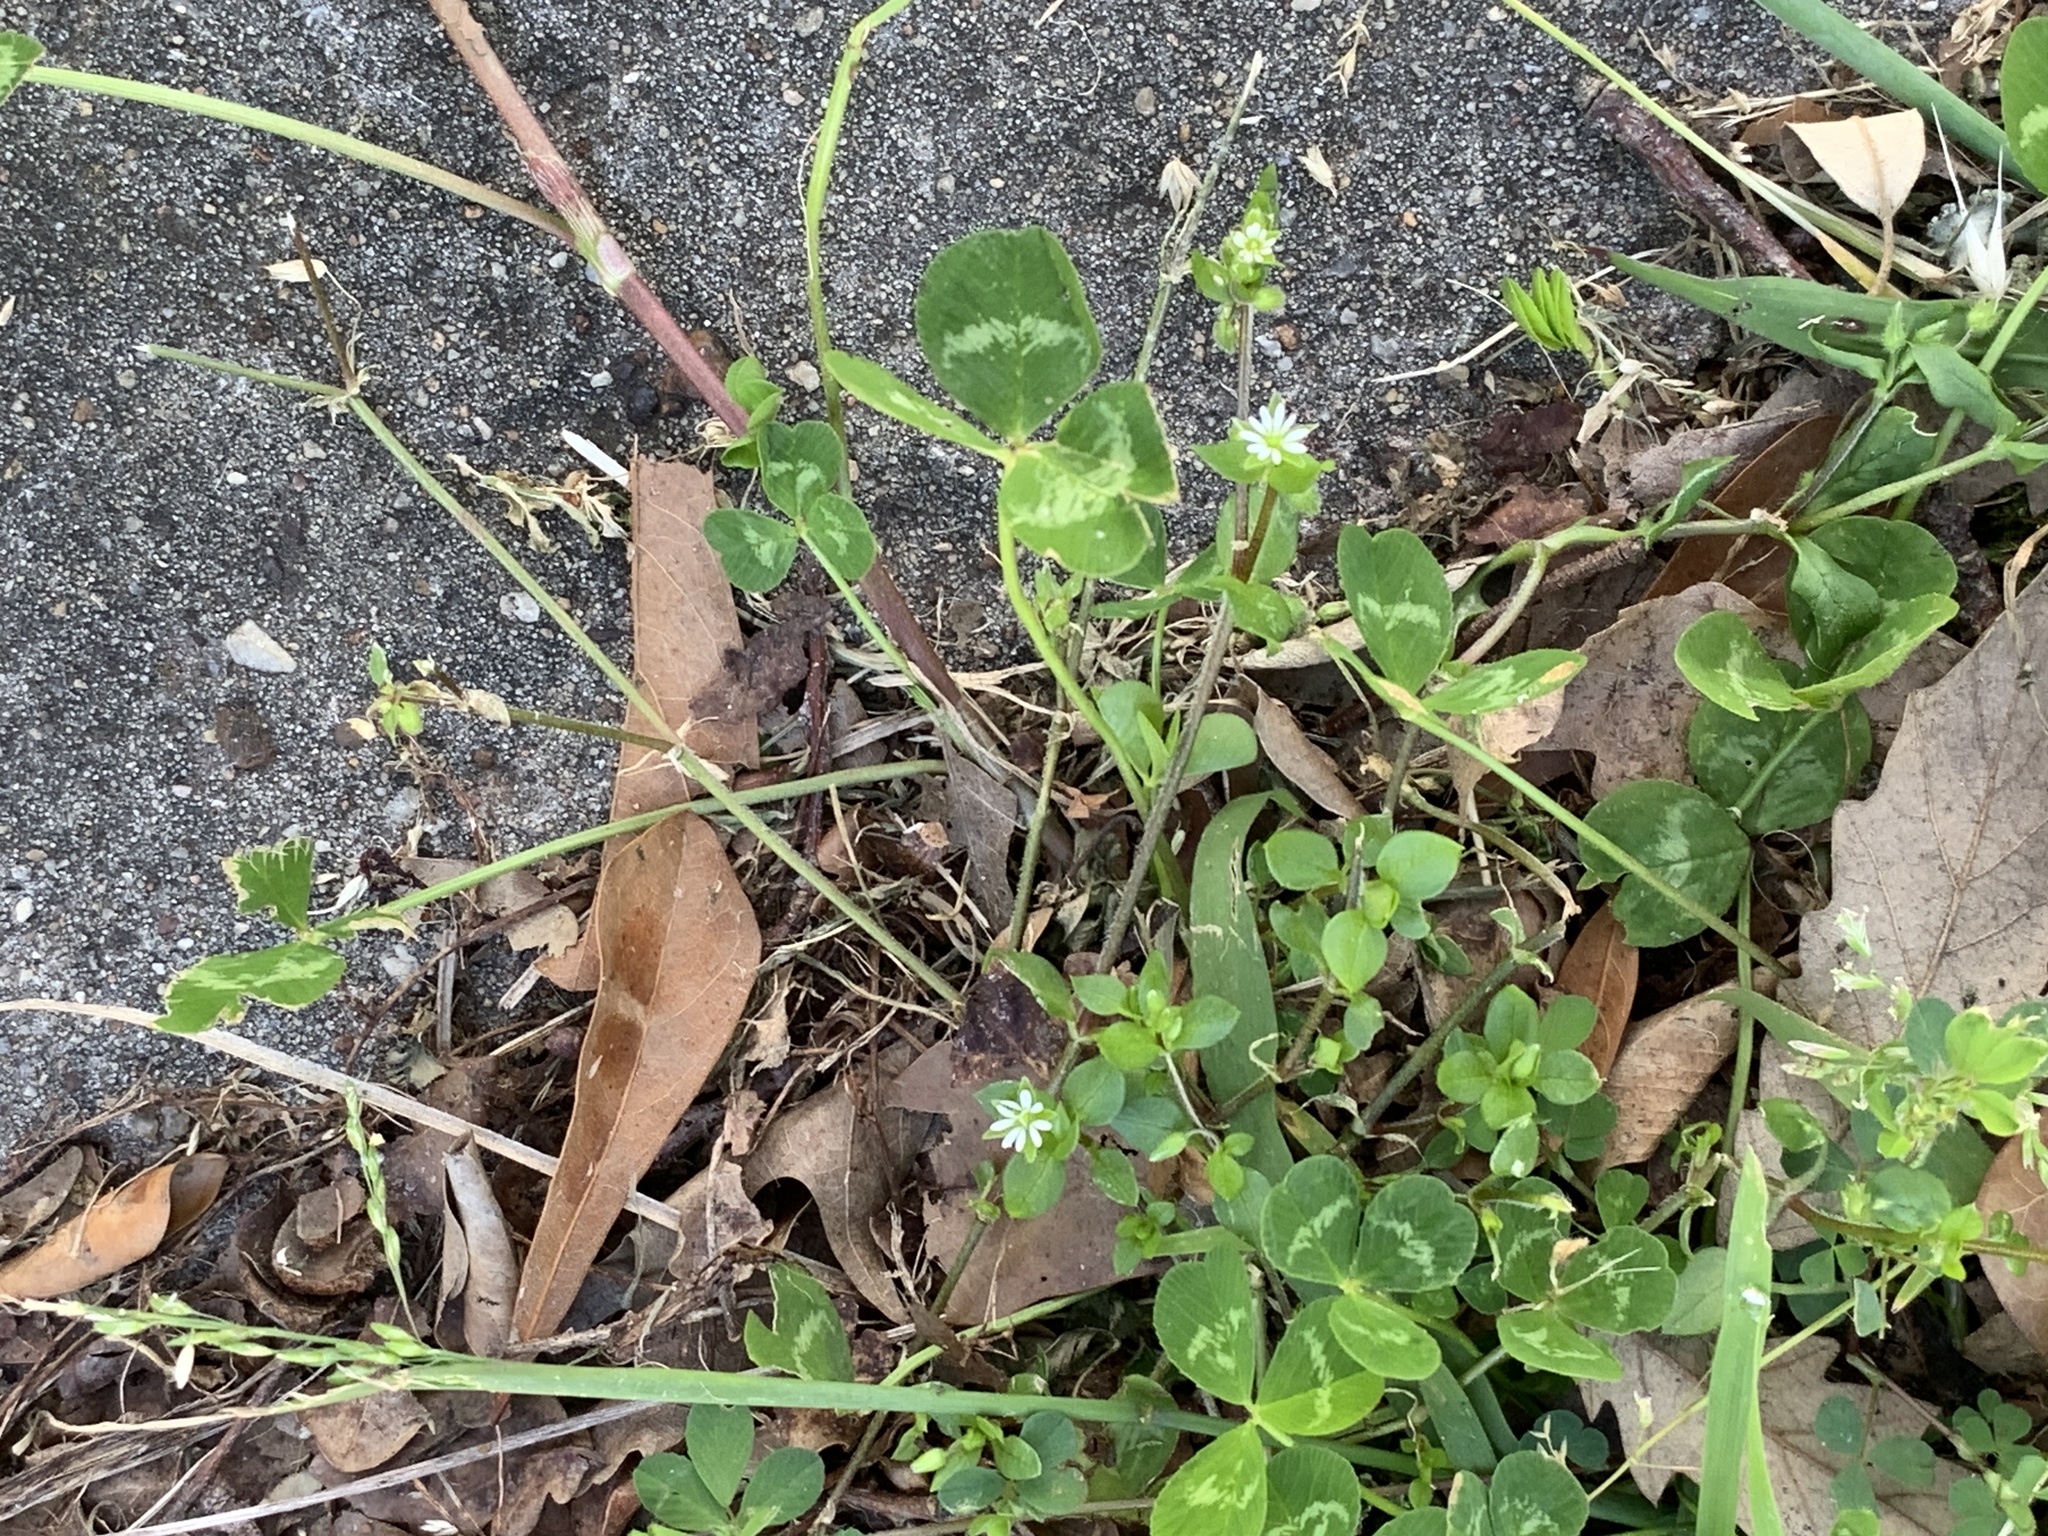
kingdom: Plantae
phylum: Tracheophyta
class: Magnoliopsida
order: Caryophyllales
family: Caryophyllaceae
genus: Stellaria
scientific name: Stellaria media
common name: Common chickweed
